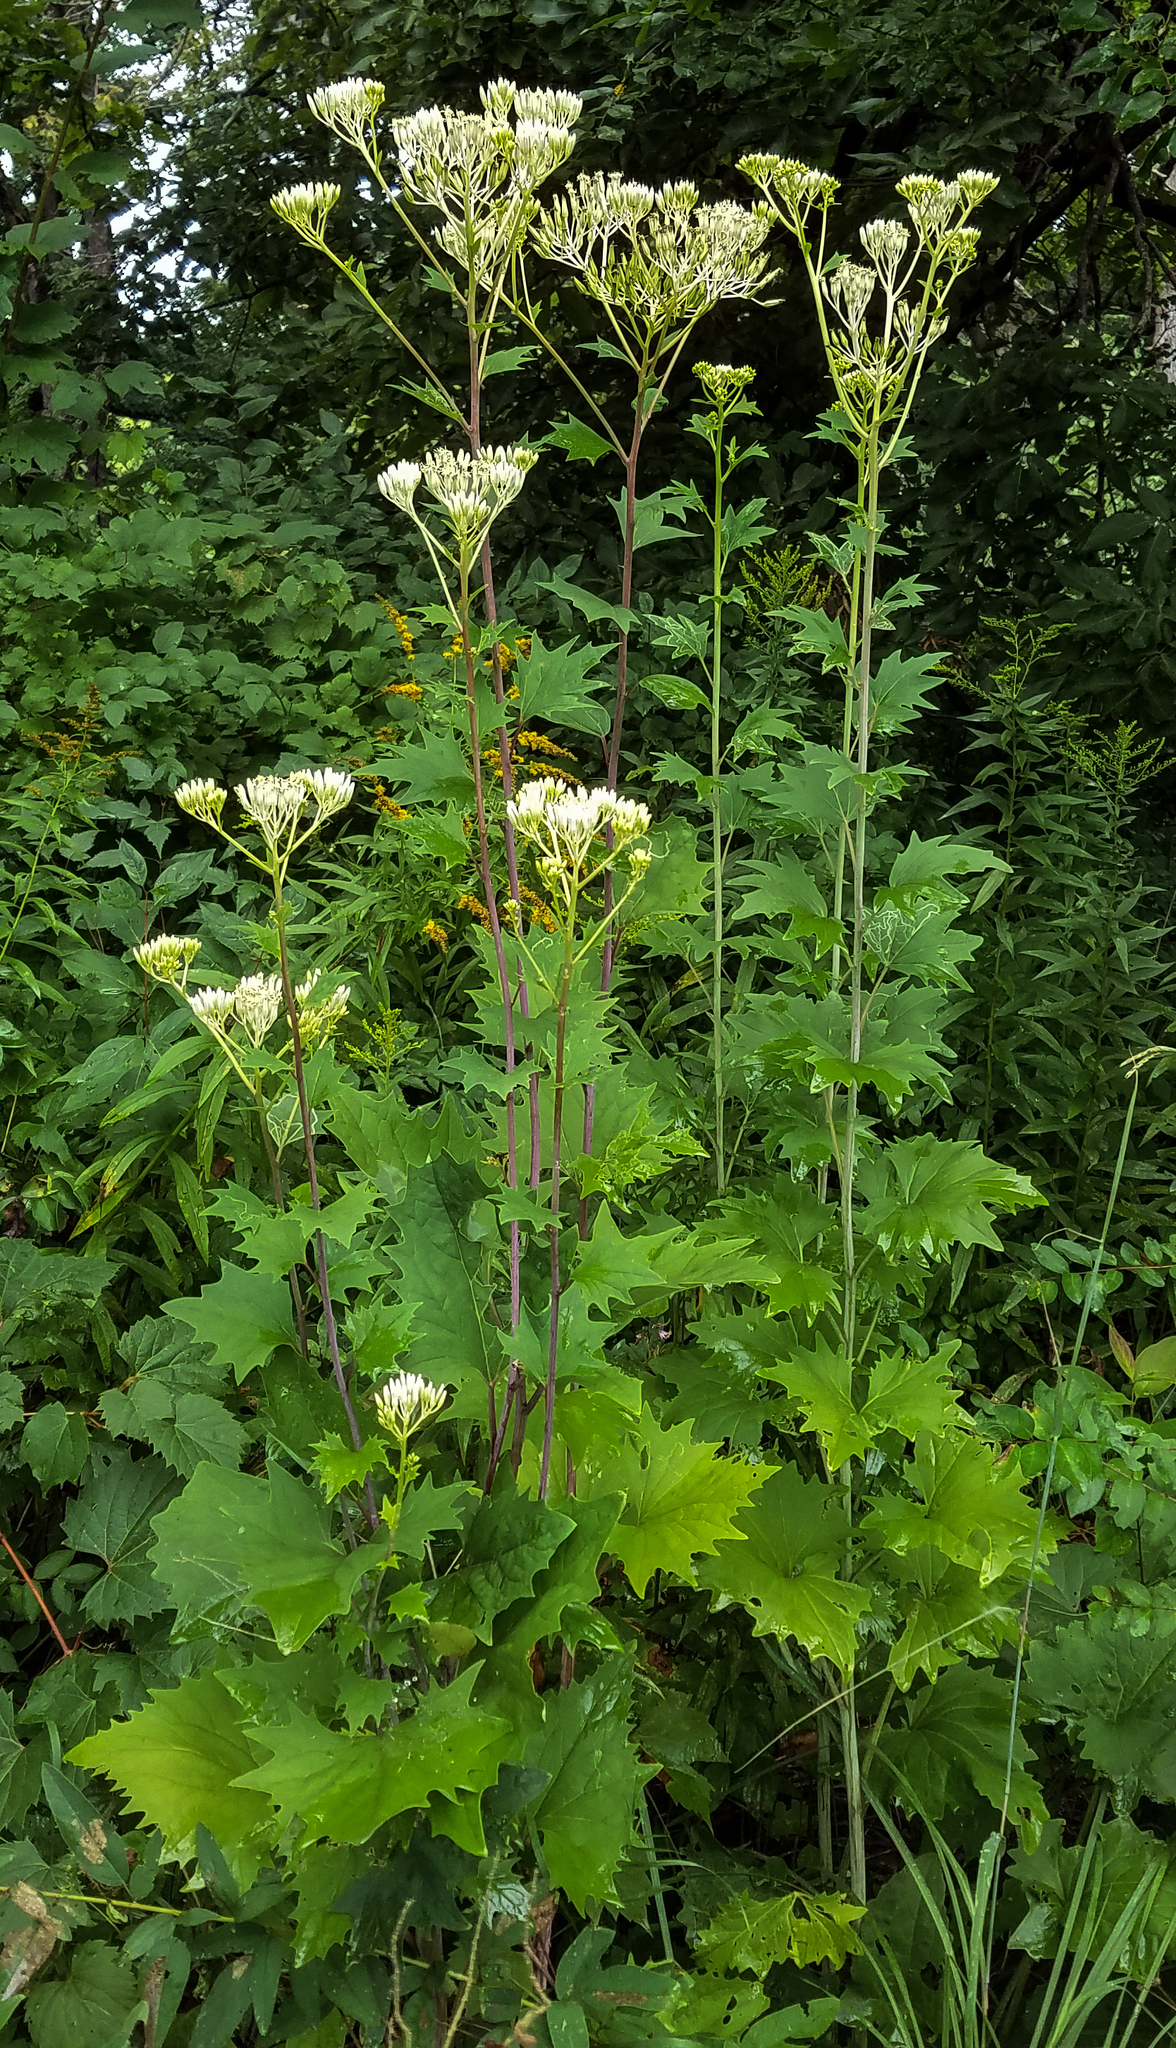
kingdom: Plantae
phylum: Tracheophyta
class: Magnoliopsida
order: Asterales
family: Asteraceae
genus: Arnoglossum
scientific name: Arnoglossum atriplicifolium
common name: Pale indian-plantain
